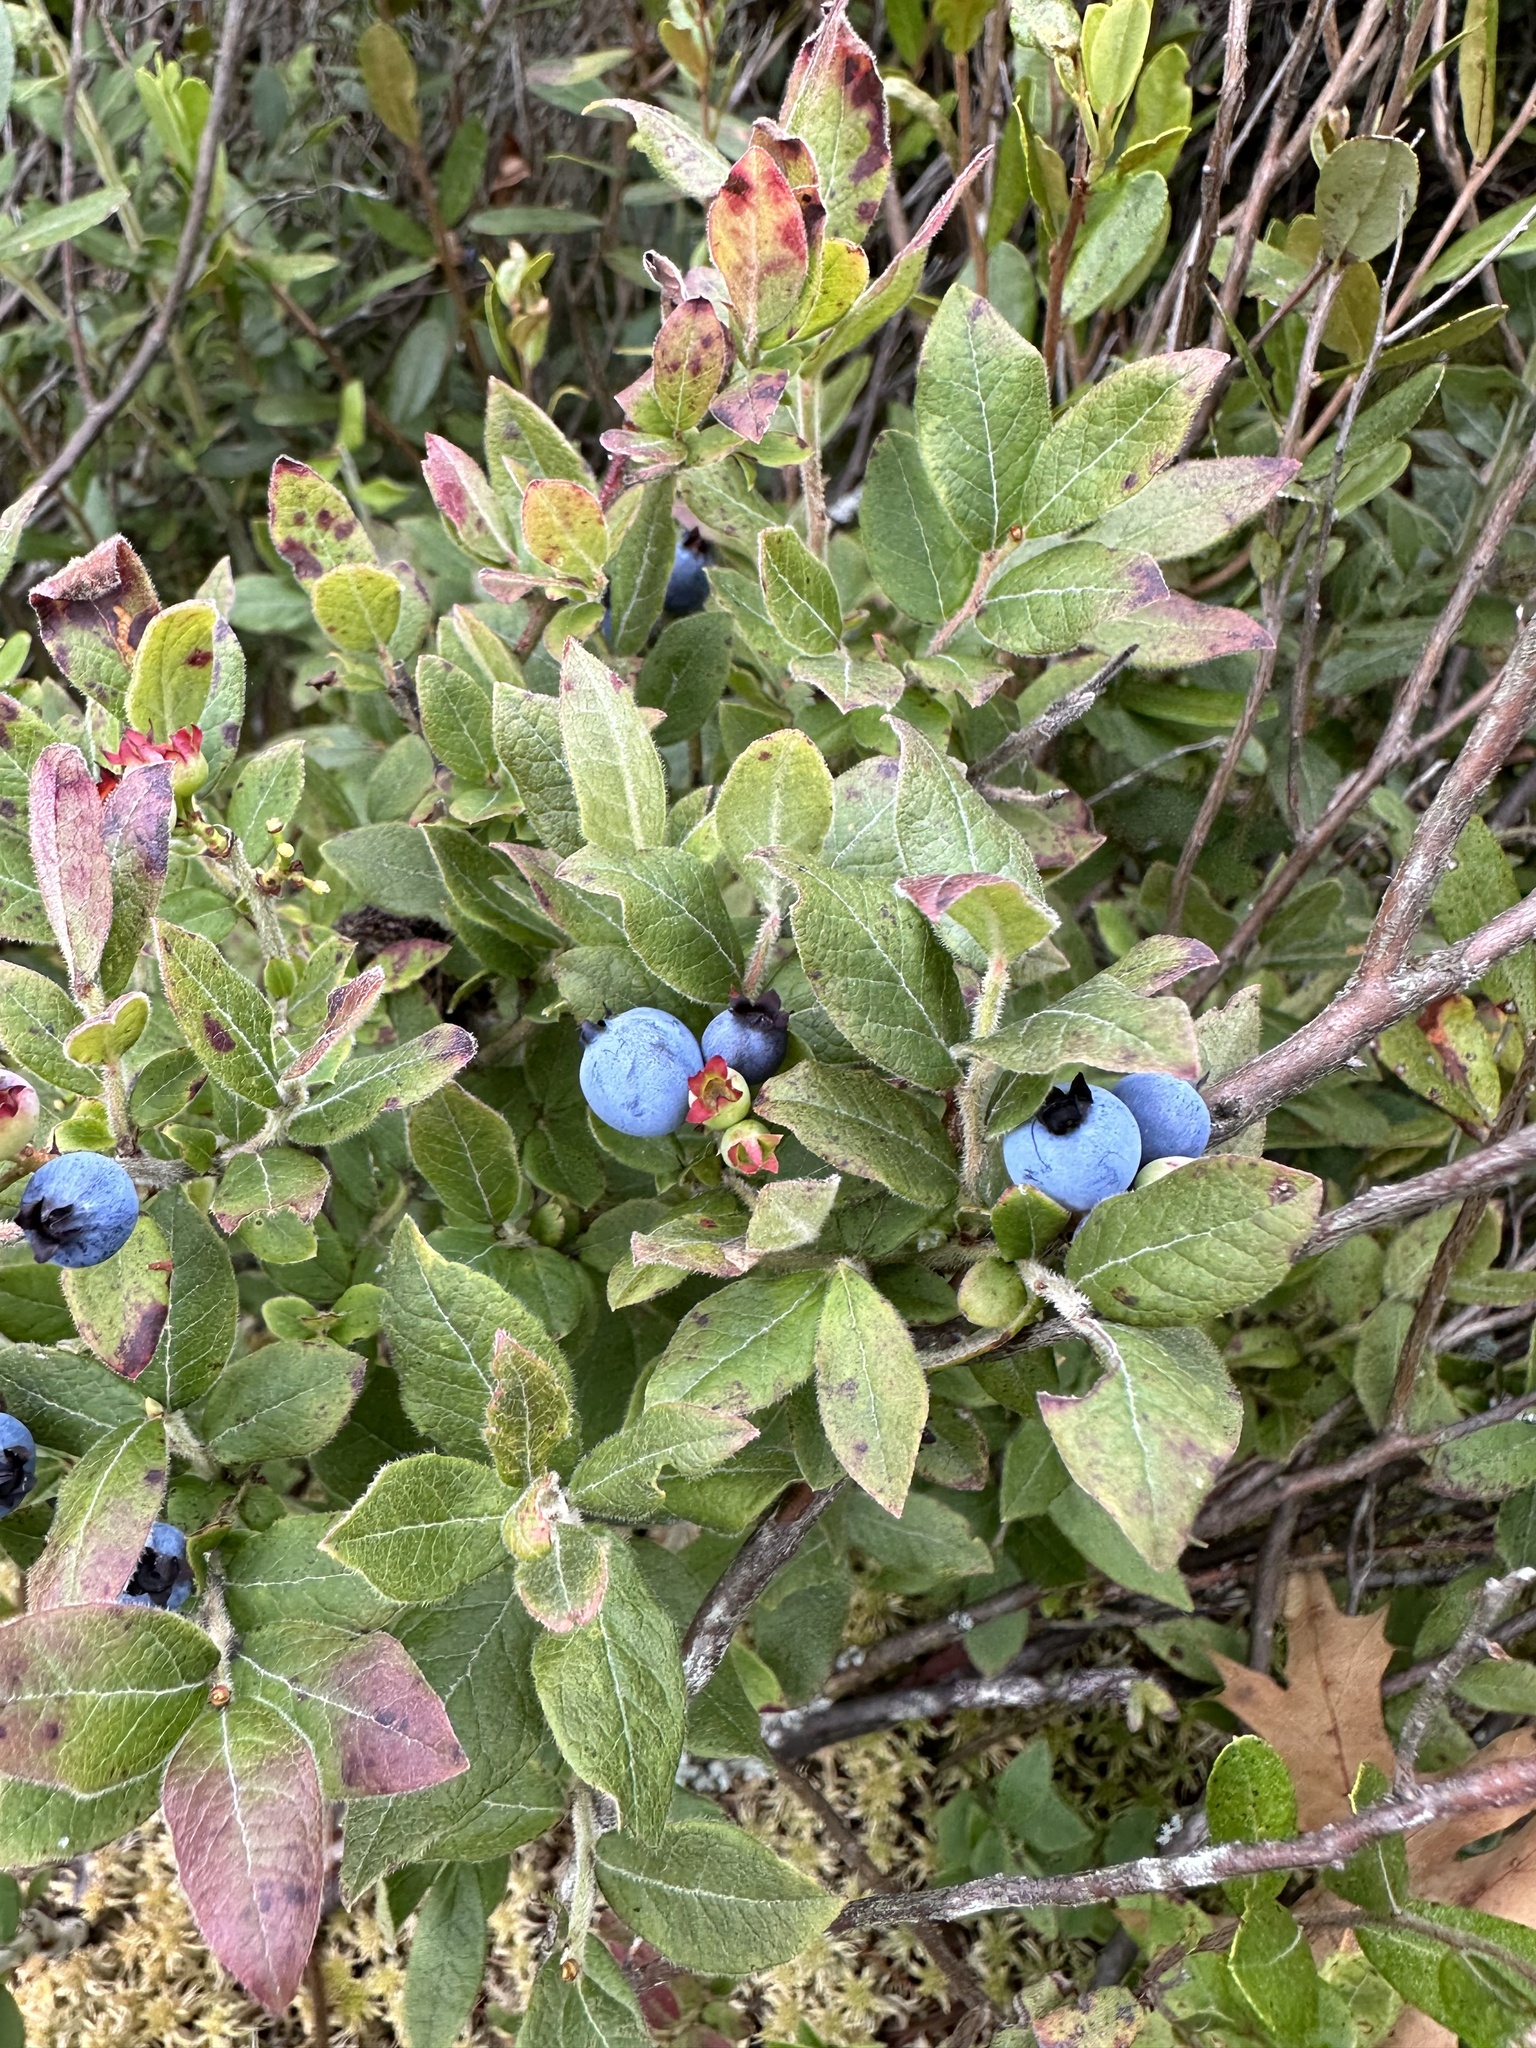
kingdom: Plantae
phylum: Tracheophyta
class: Magnoliopsida
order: Ericales
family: Ericaceae
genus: Vaccinium
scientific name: Vaccinium myrtilloides
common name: Canada blueberry
